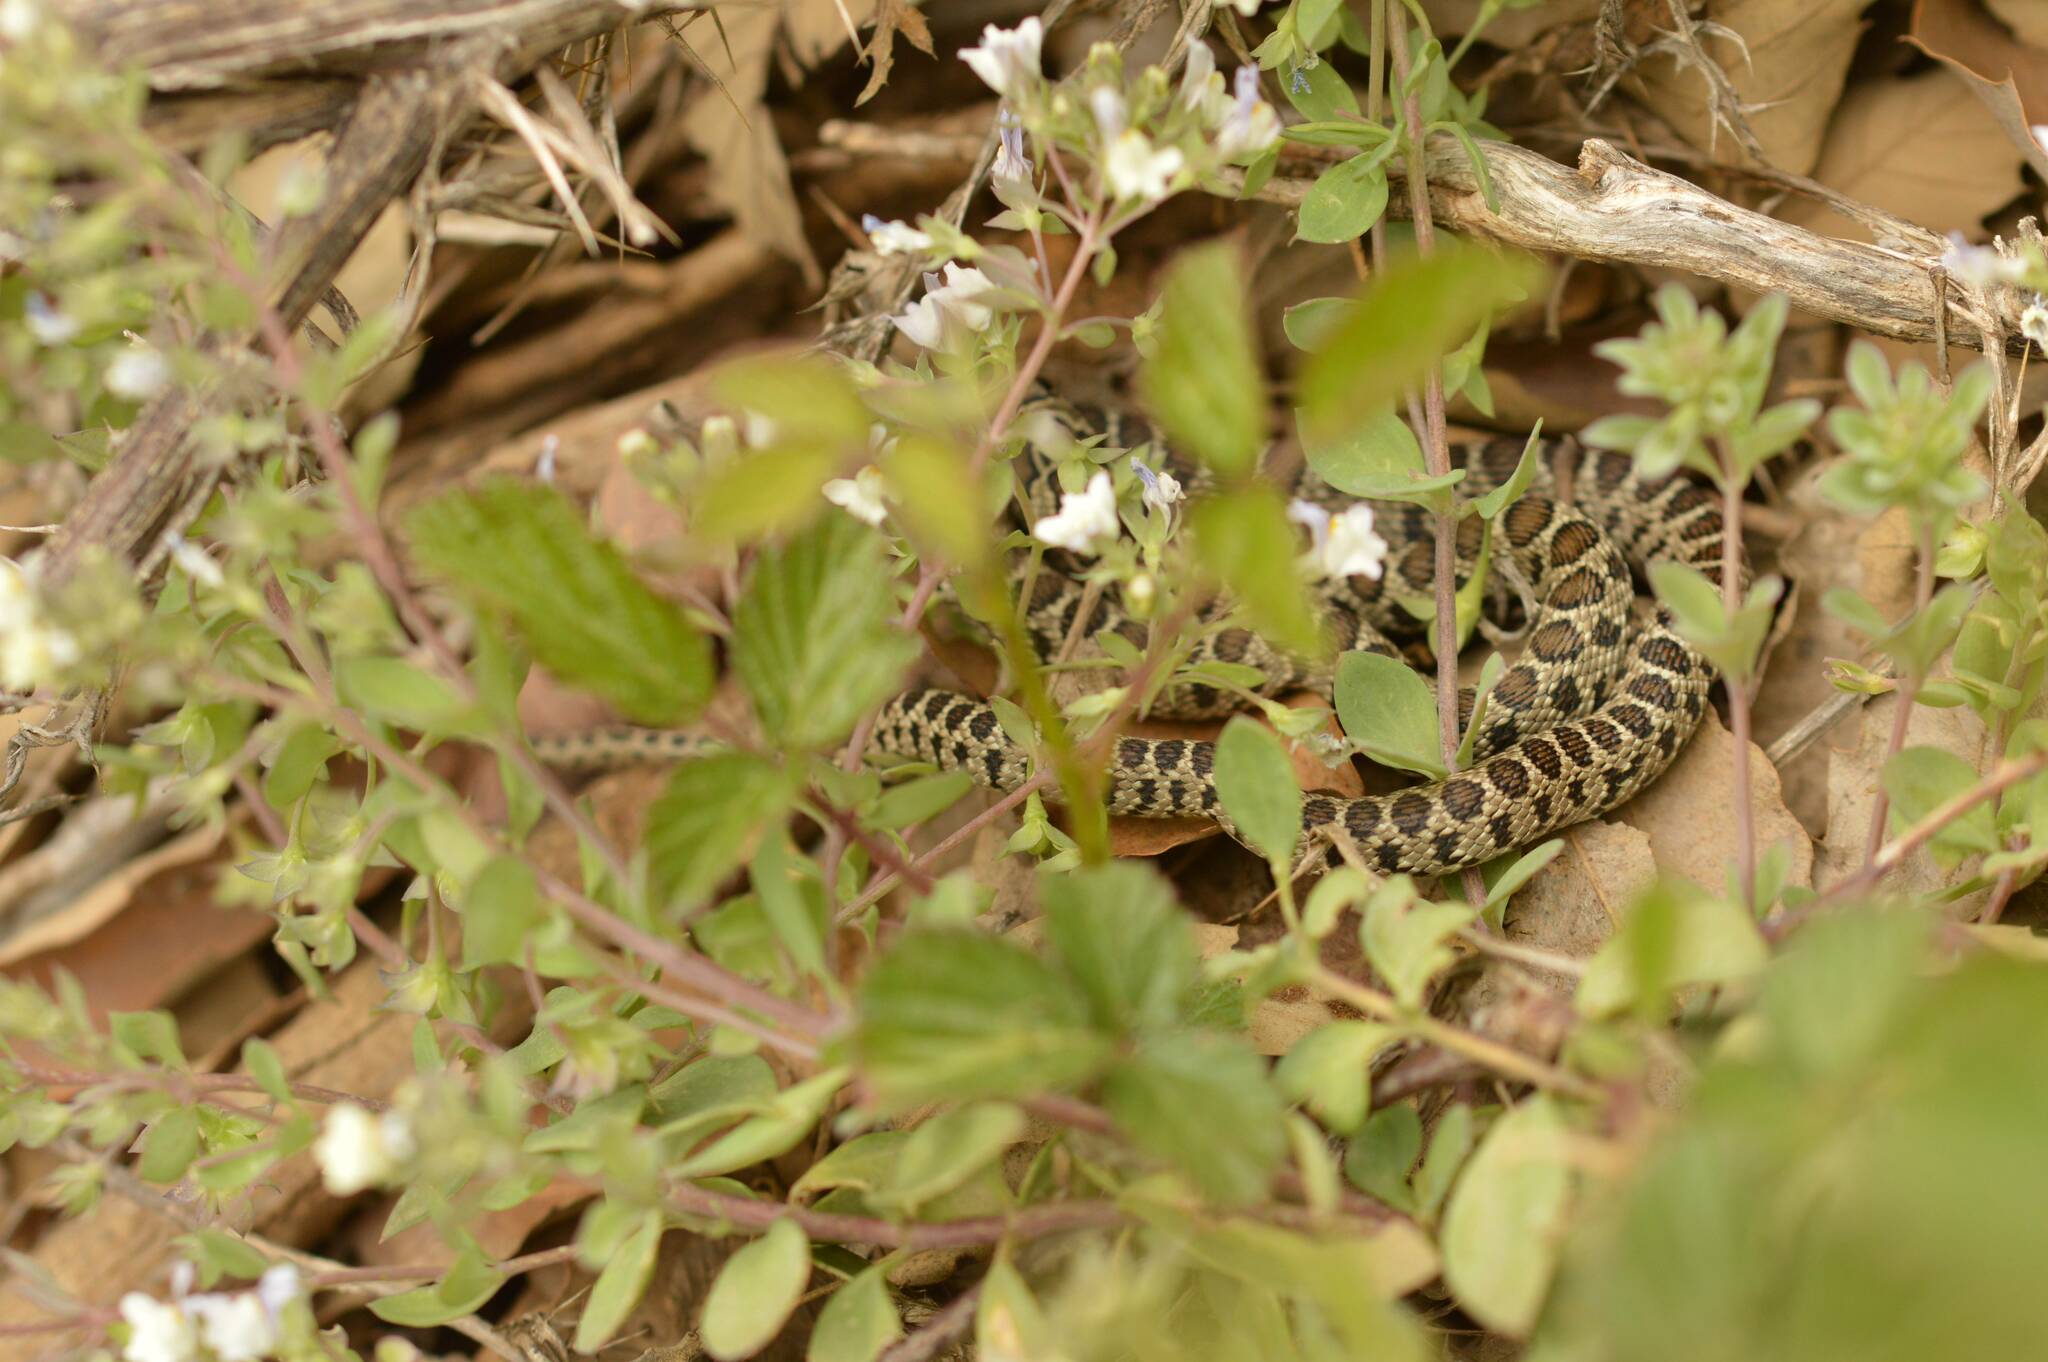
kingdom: Animalia
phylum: Chordata
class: Squamata
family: Colubridae
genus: Hemorrhois
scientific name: Hemorrhois hippocrepis
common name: Horseshoe whip snake
